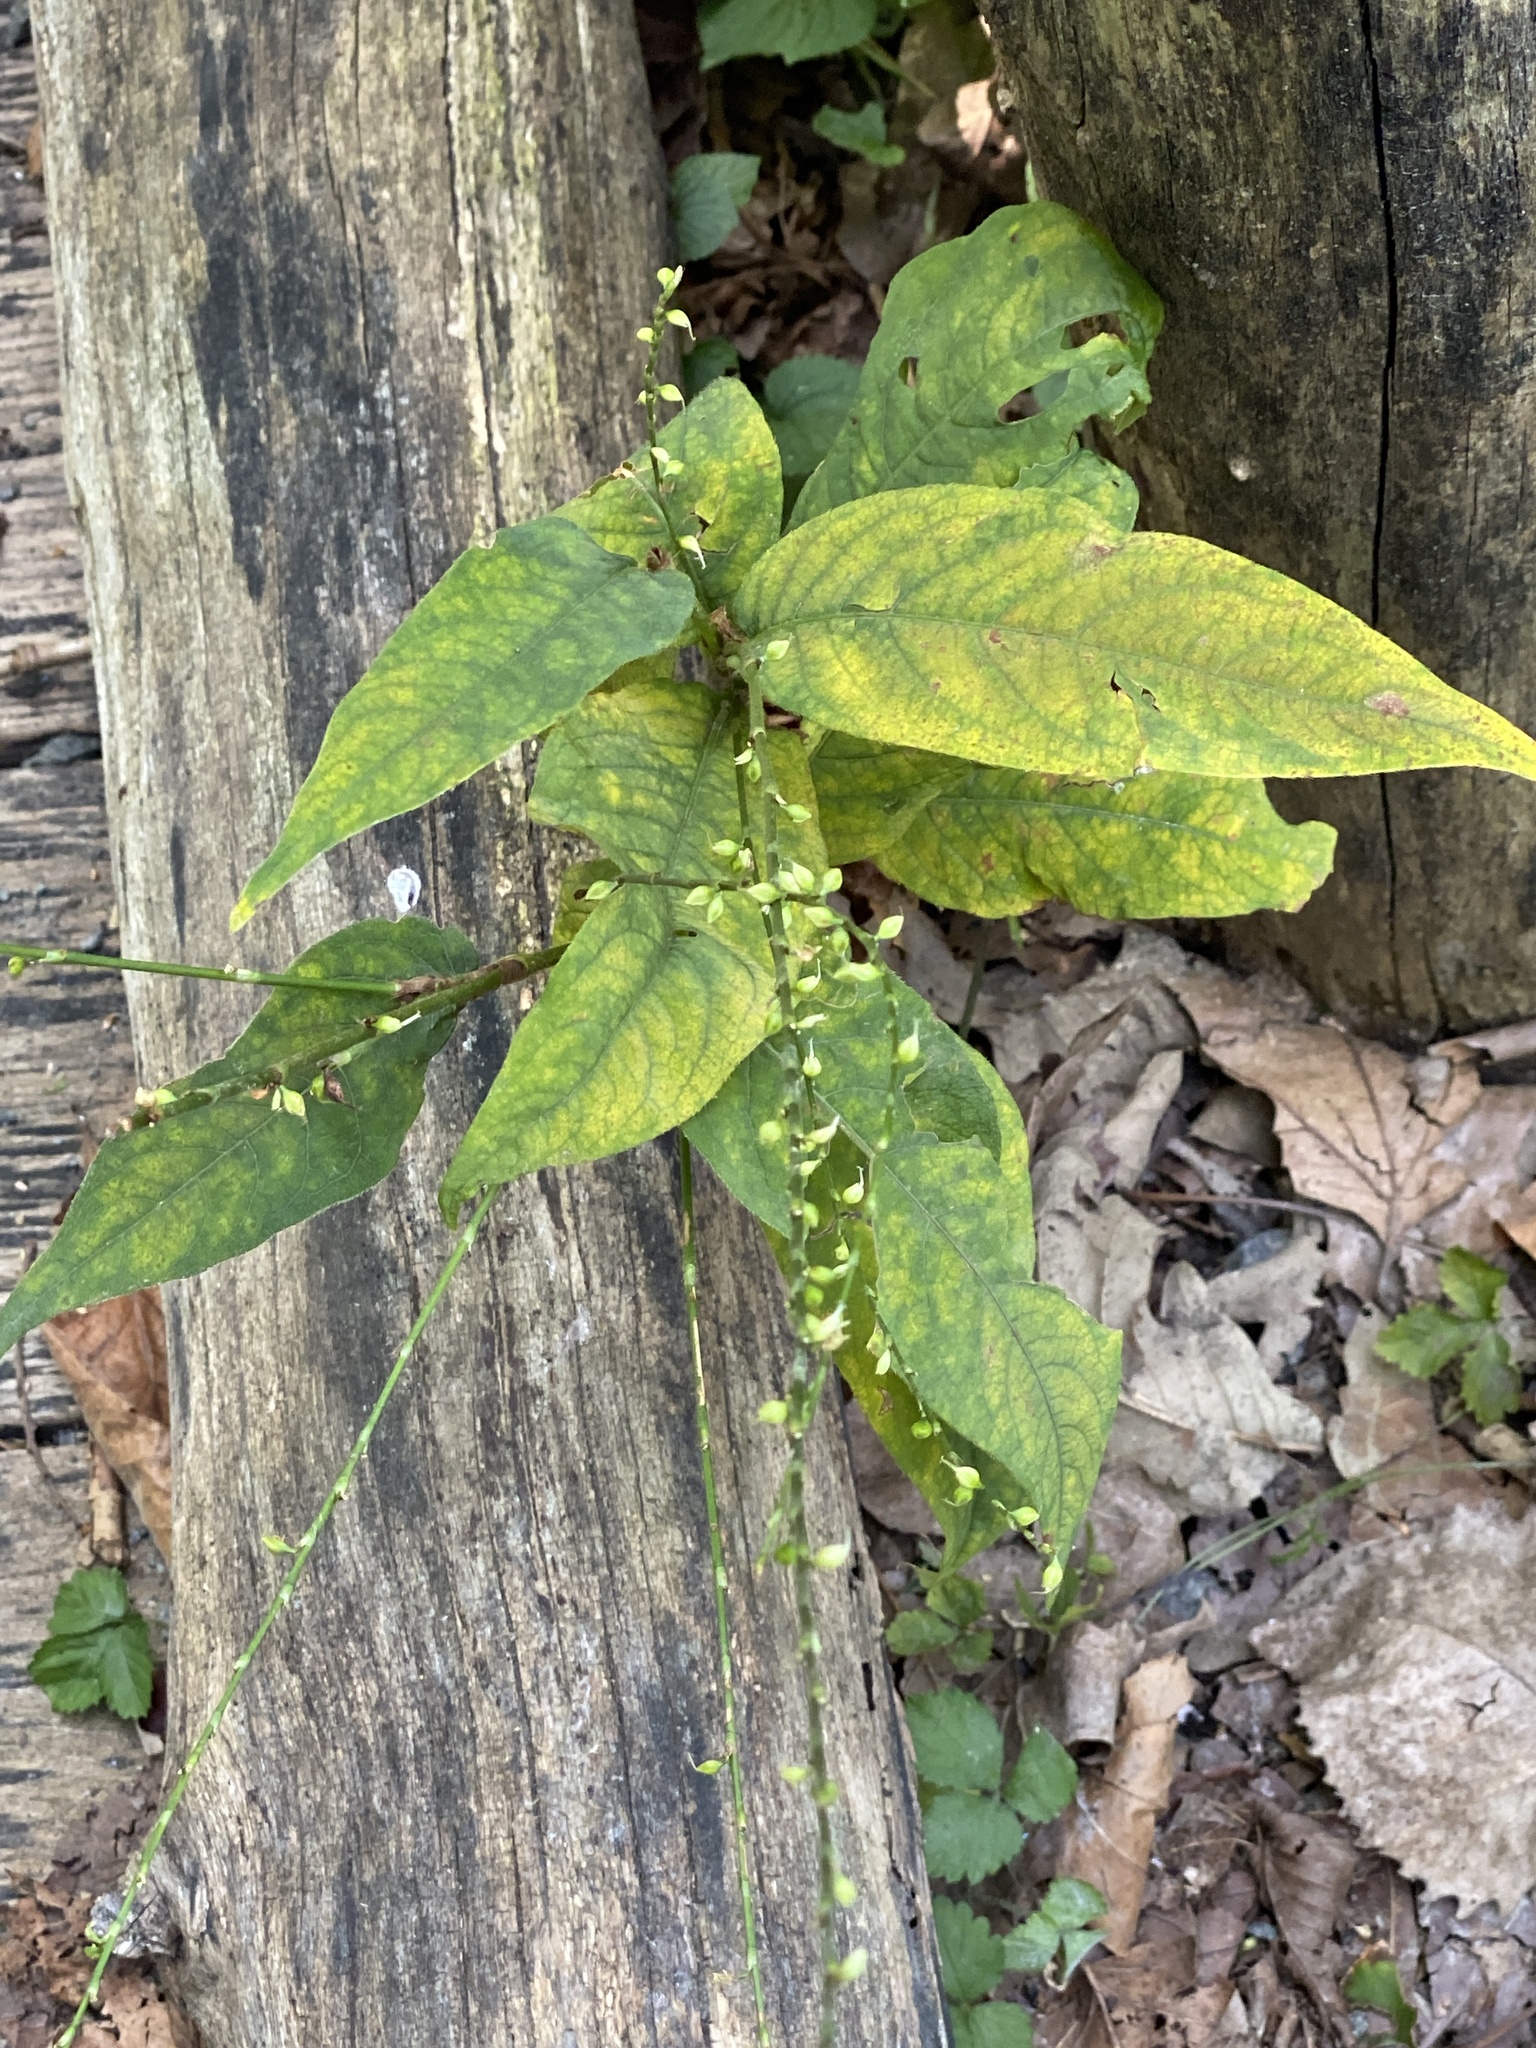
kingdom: Plantae
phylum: Tracheophyta
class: Magnoliopsida
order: Caryophyllales
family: Polygonaceae
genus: Persicaria
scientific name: Persicaria virginiana
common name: Jumpseed
